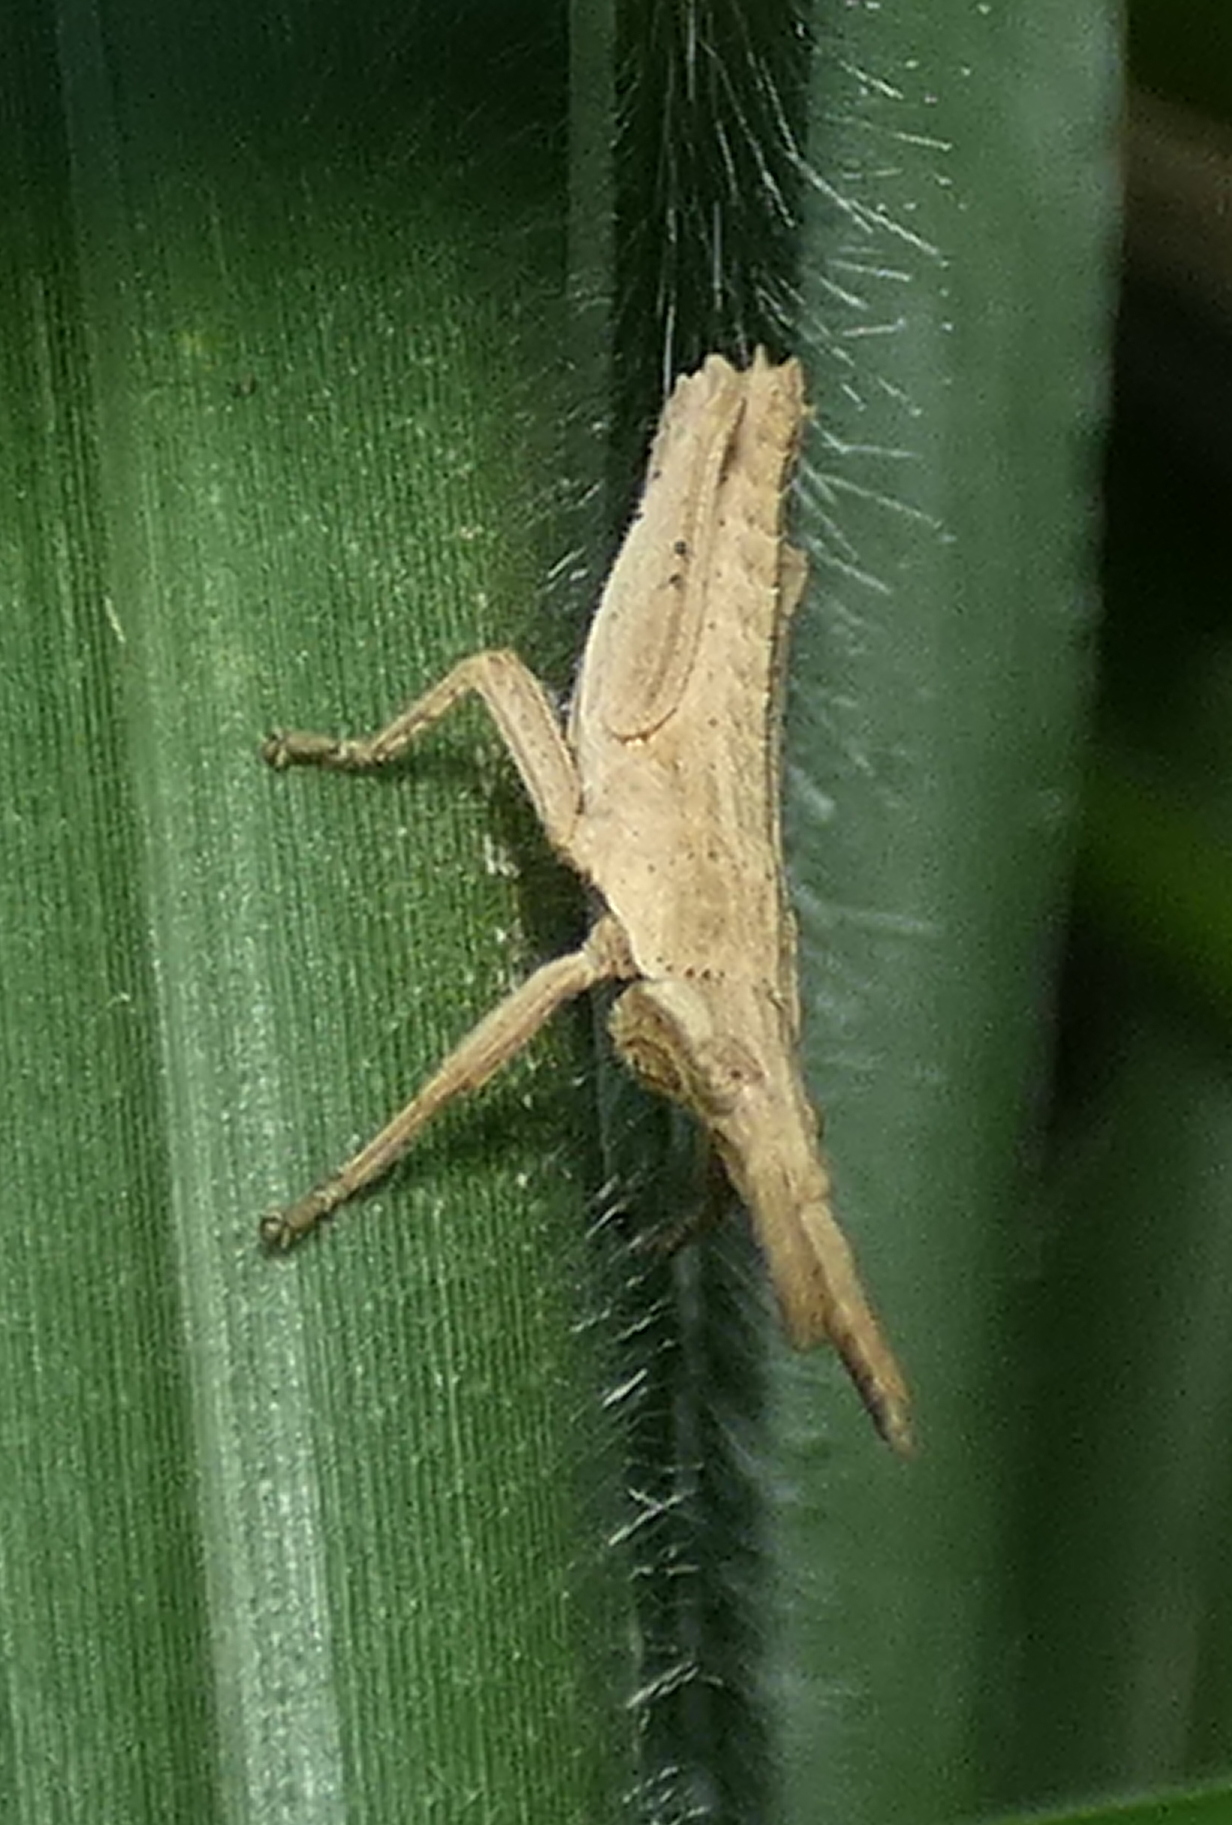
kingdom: Animalia
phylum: Arthropoda
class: Insecta
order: Orthoptera
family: Pyrgomorphidae
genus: Algete
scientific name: Algete brunneri
